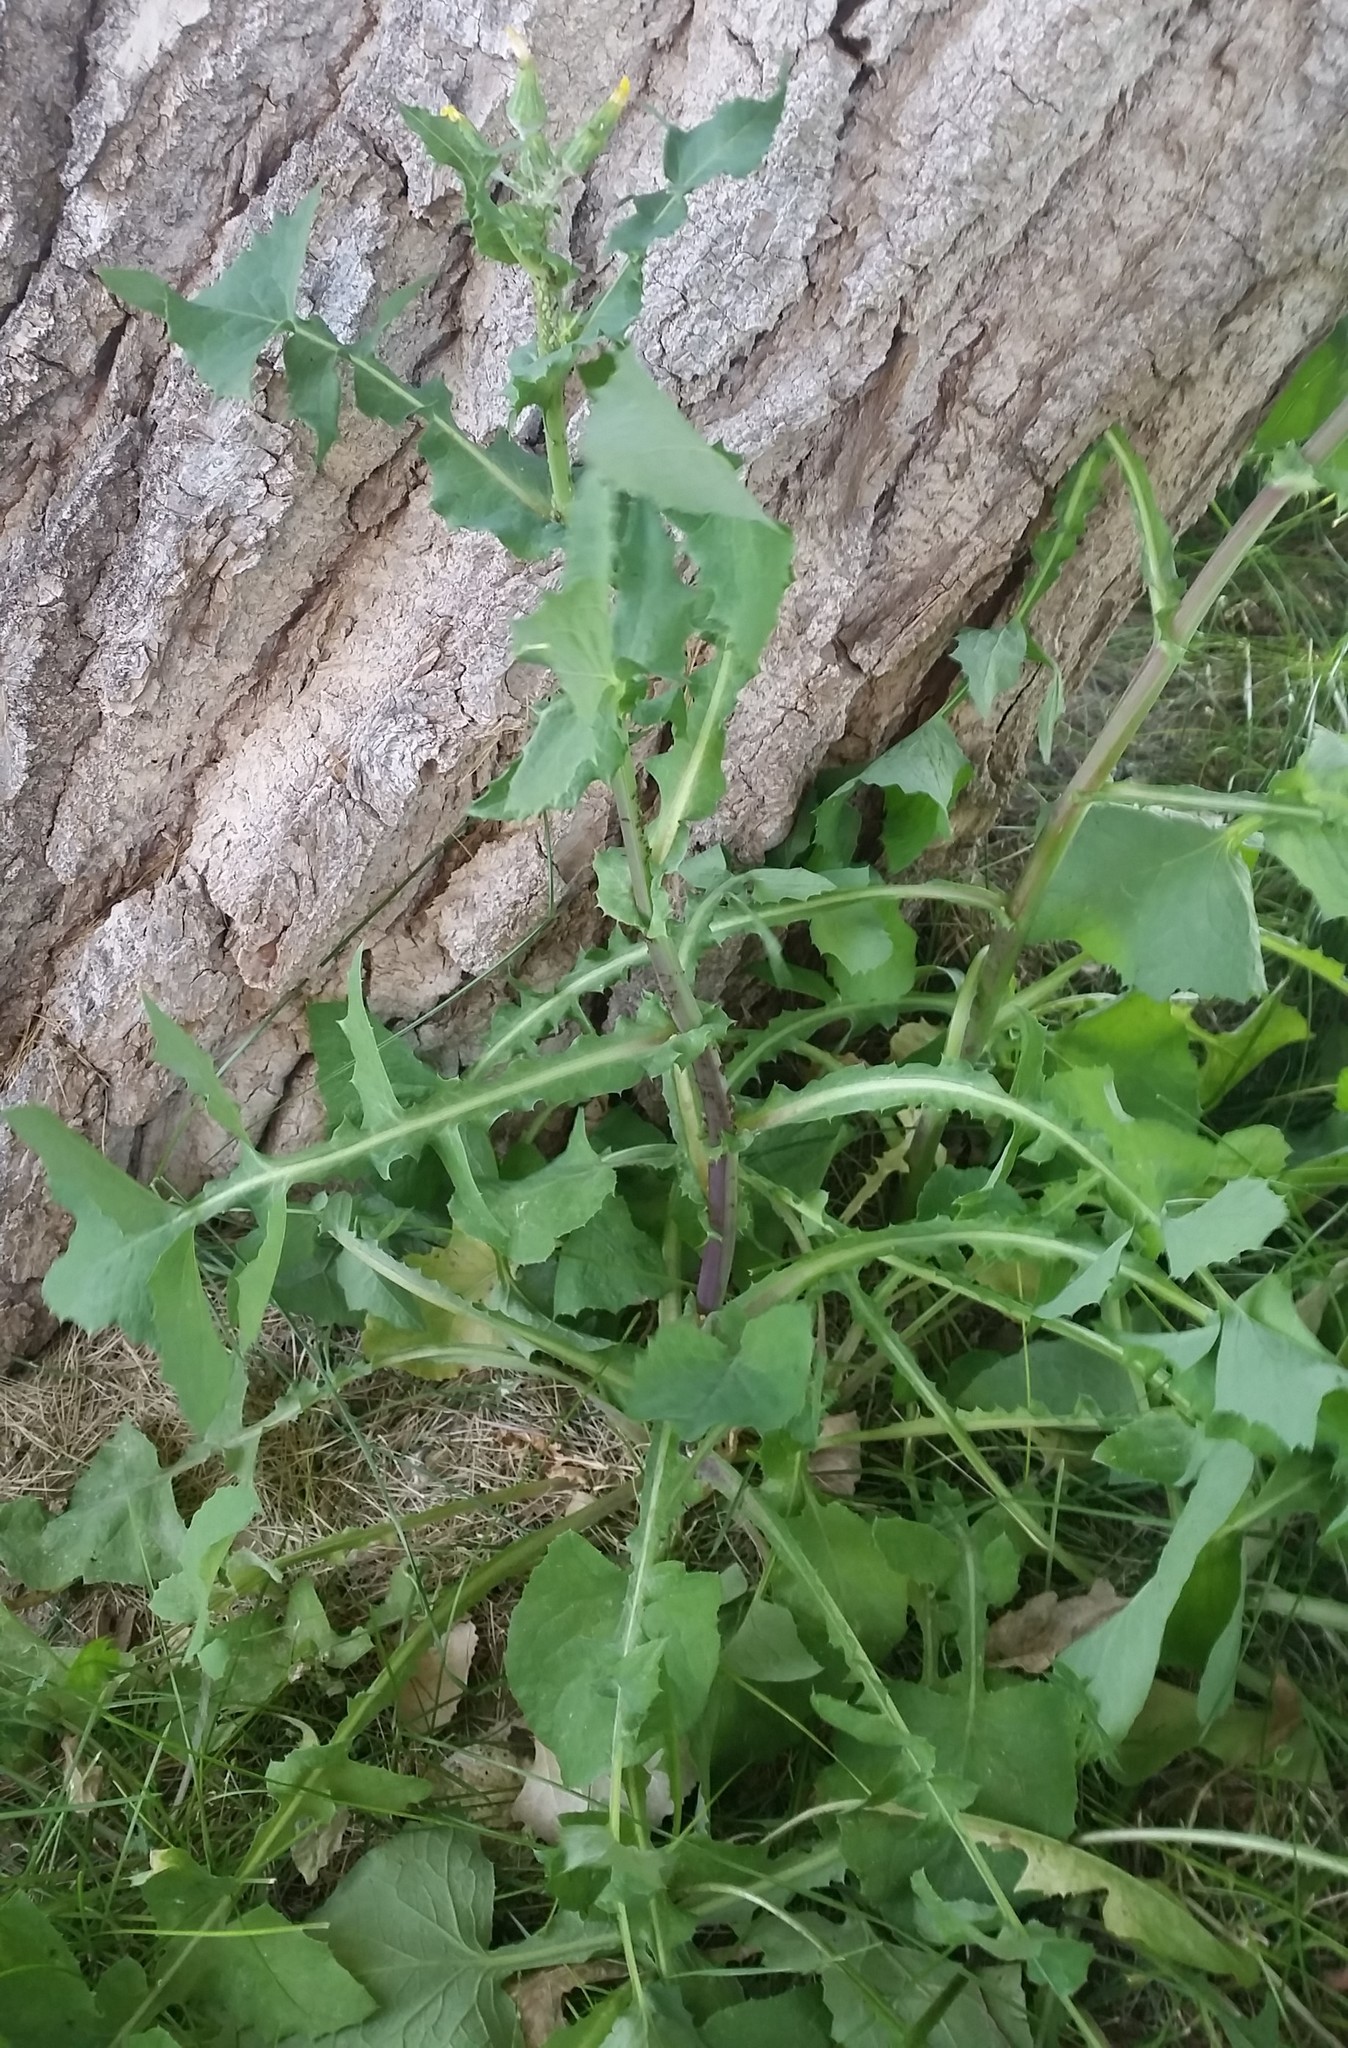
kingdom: Plantae
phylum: Tracheophyta
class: Magnoliopsida
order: Asterales
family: Asteraceae
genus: Sonchus
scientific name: Sonchus oleraceus
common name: Common sowthistle
